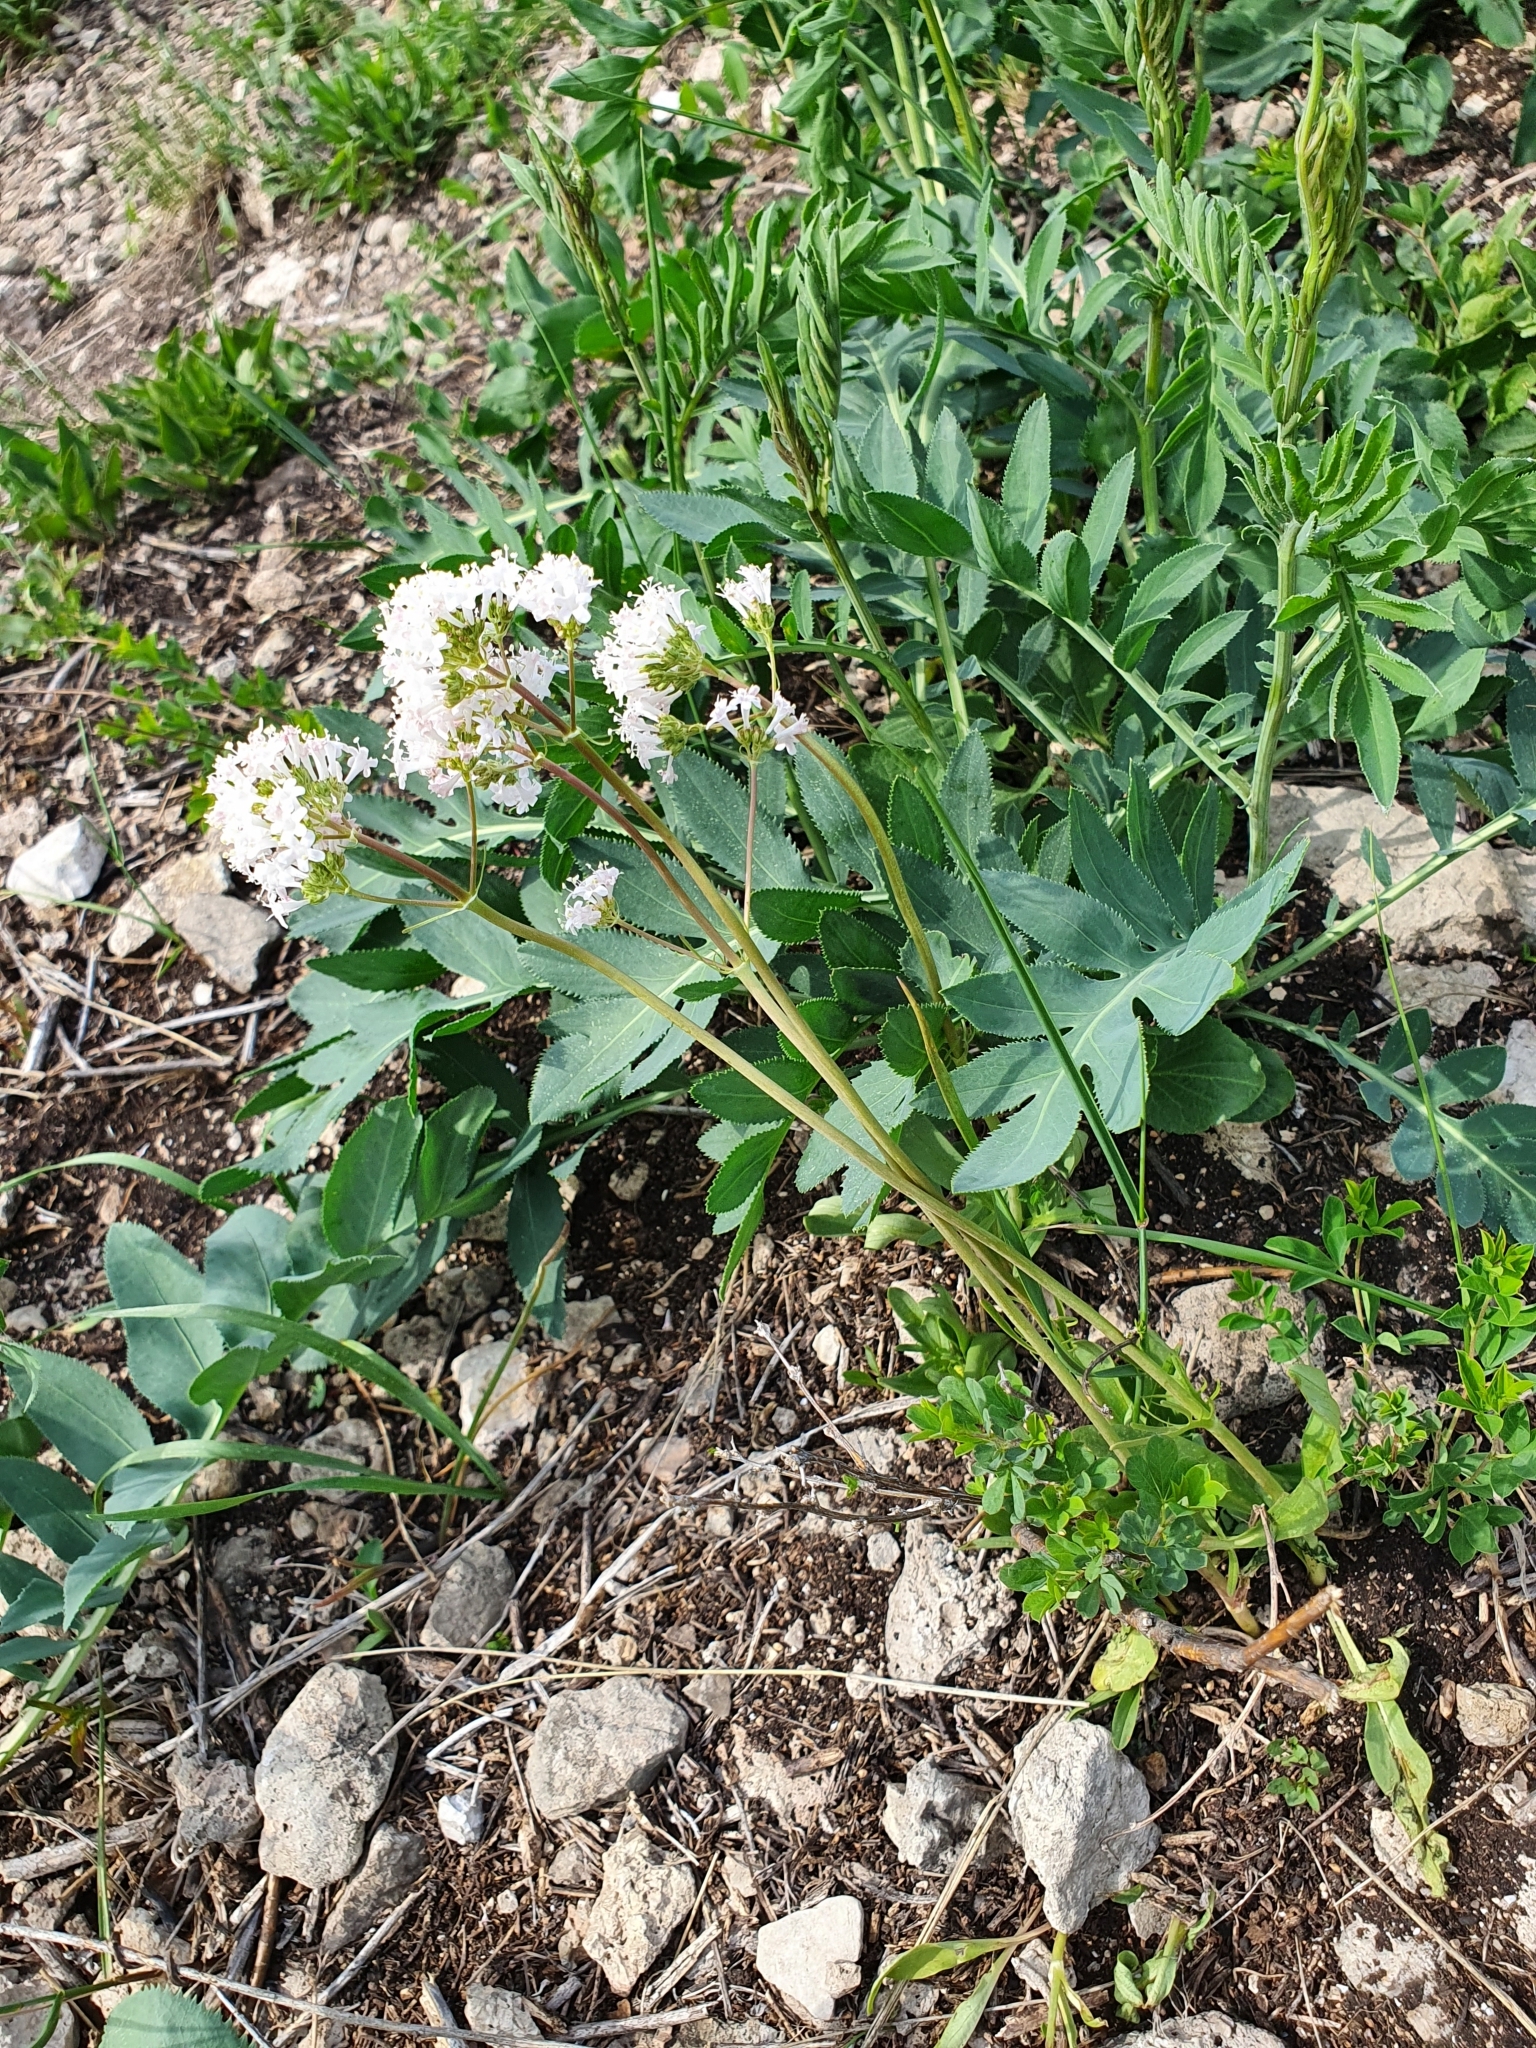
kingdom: Plantae
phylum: Tracheophyta
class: Magnoliopsida
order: Dipsacales
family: Caprifoliaceae
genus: Valeriana
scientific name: Valeriana tuberosa
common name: Tuberous valerian
